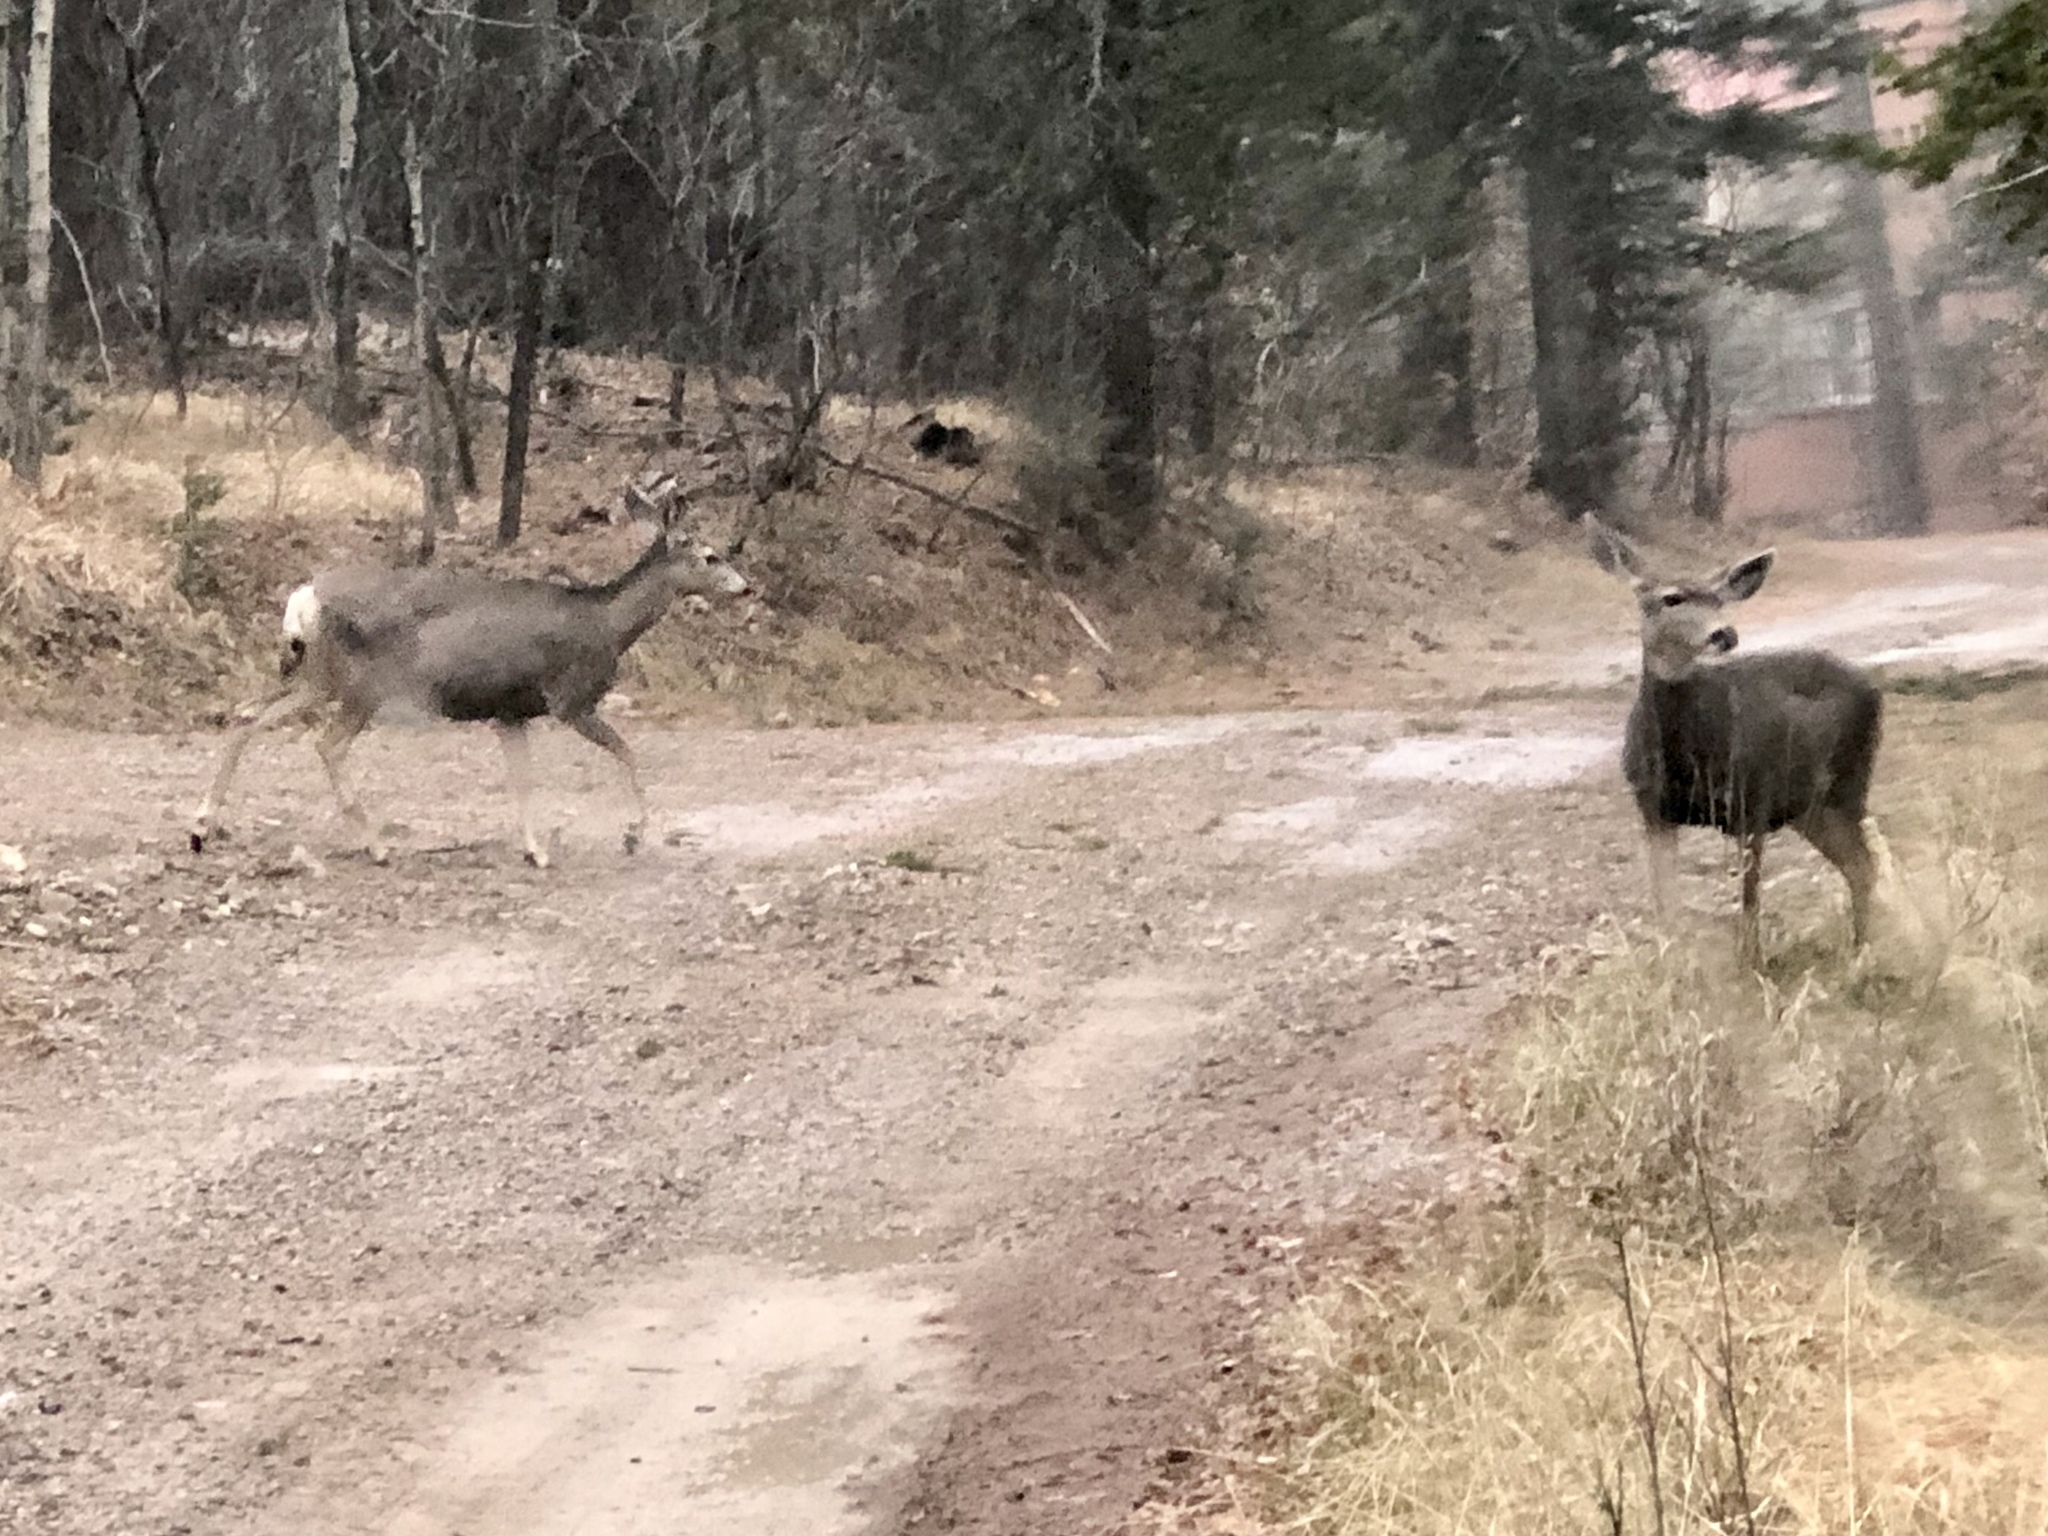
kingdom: Animalia
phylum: Chordata
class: Mammalia
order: Artiodactyla
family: Cervidae
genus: Odocoileus
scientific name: Odocoileus hemionus
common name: Mule deer
